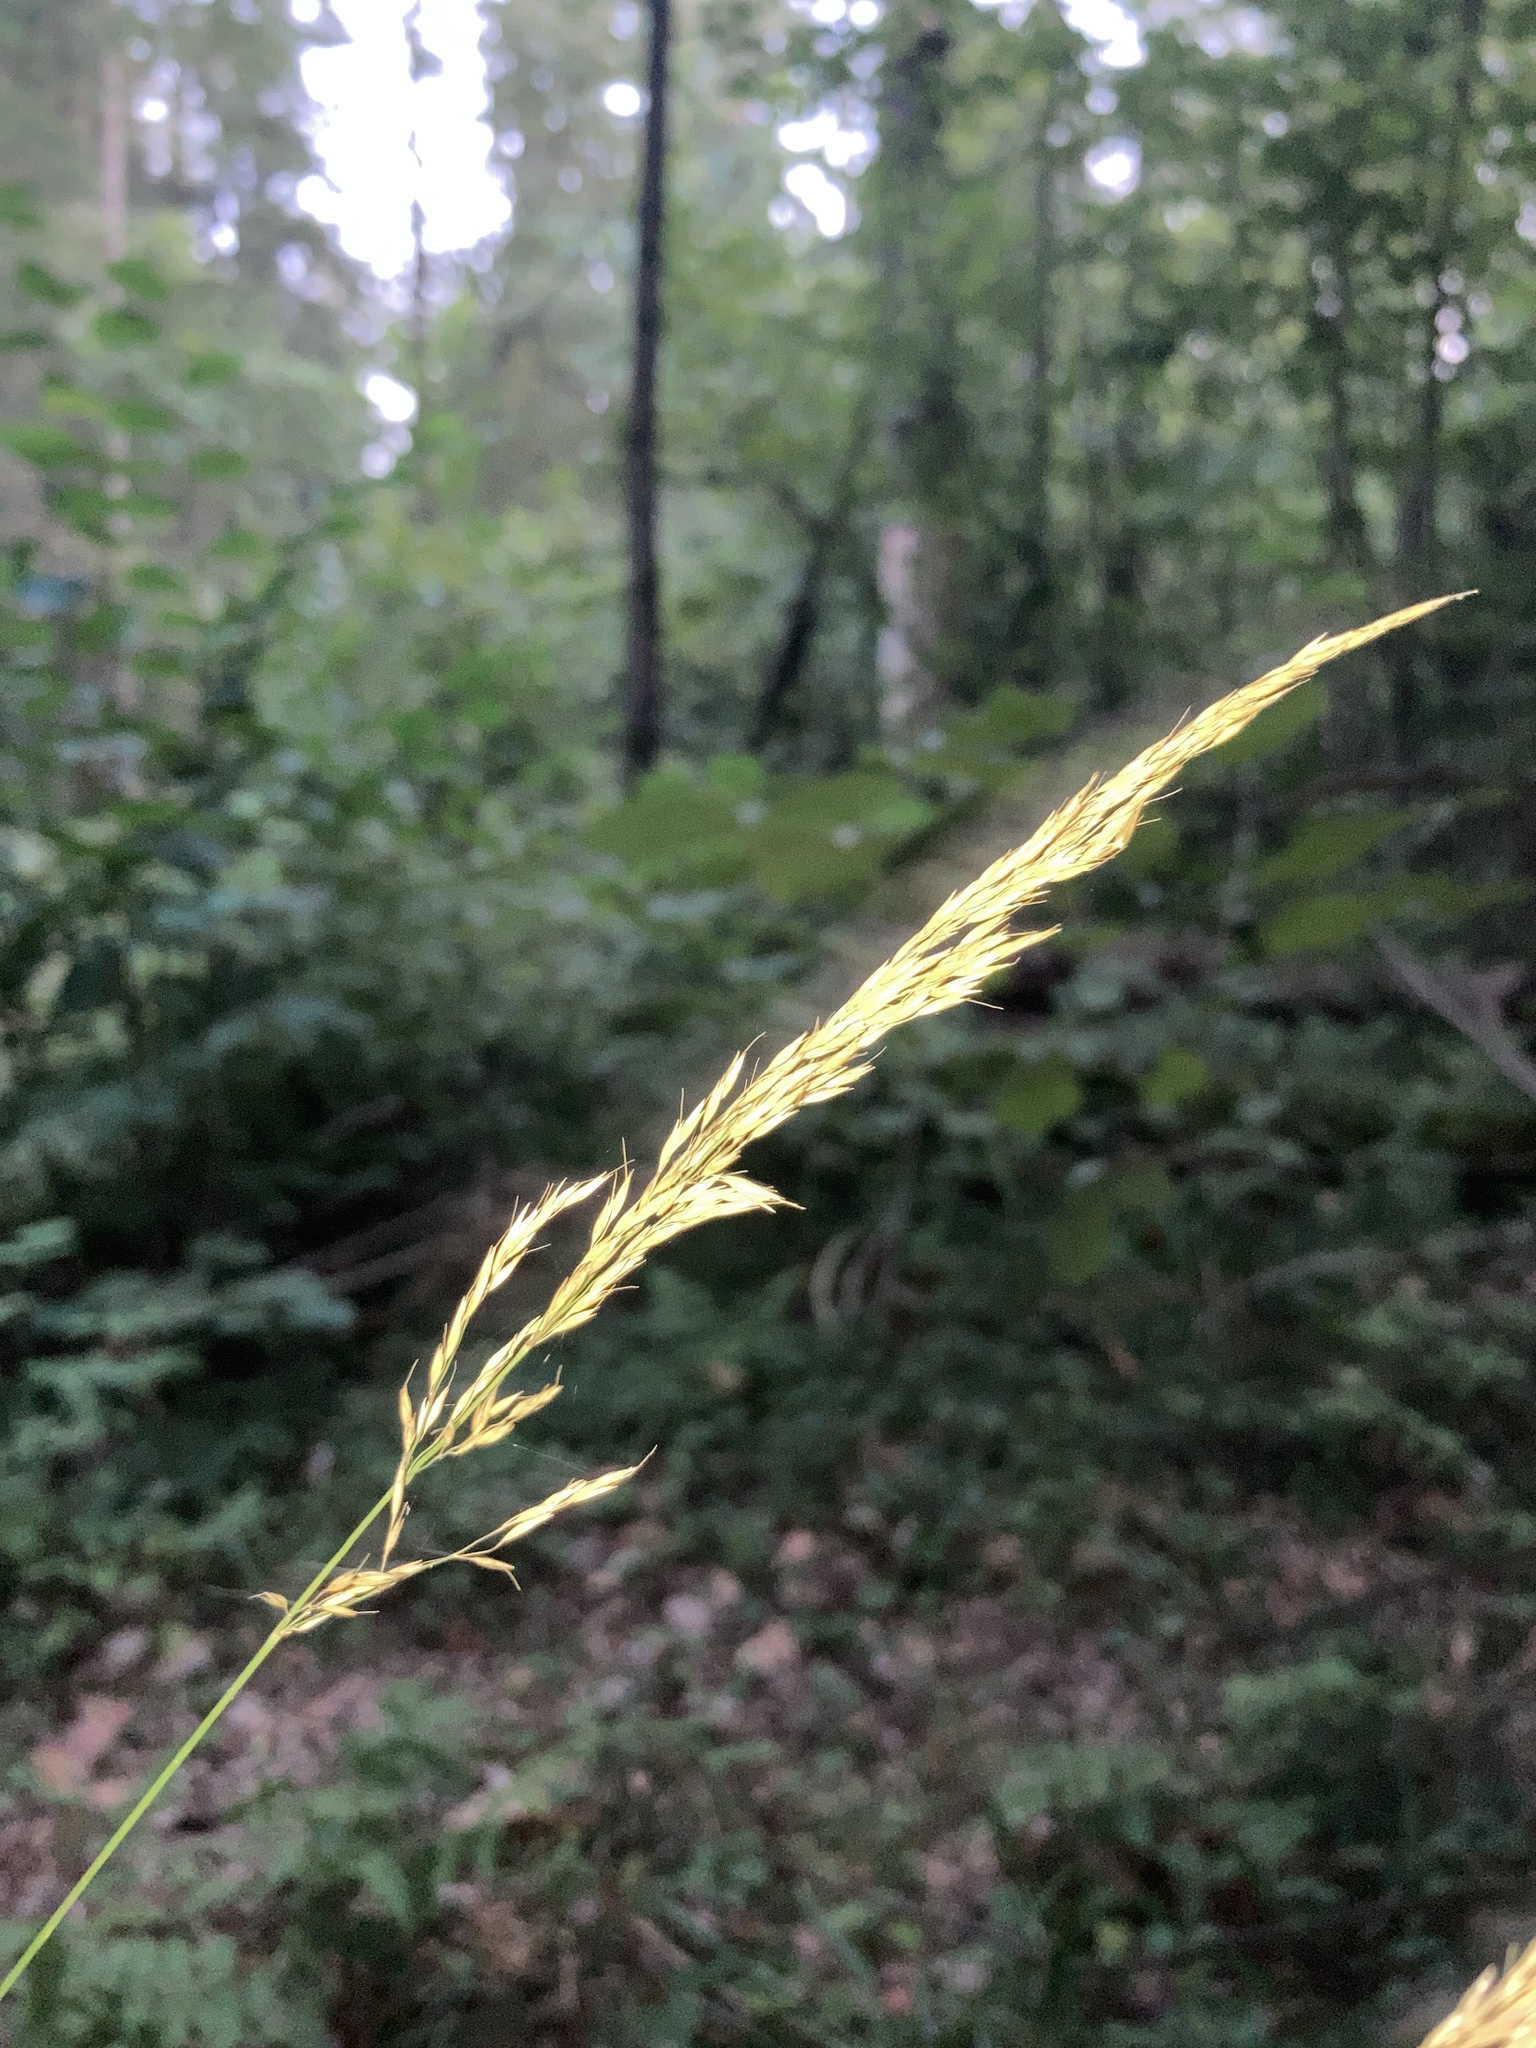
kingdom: Plantae
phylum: Tracheophyta
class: Liliopsida
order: Poales
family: Poaceae
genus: Calamagrostis
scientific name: Calamagrostis arundinacea
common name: Metskastik
